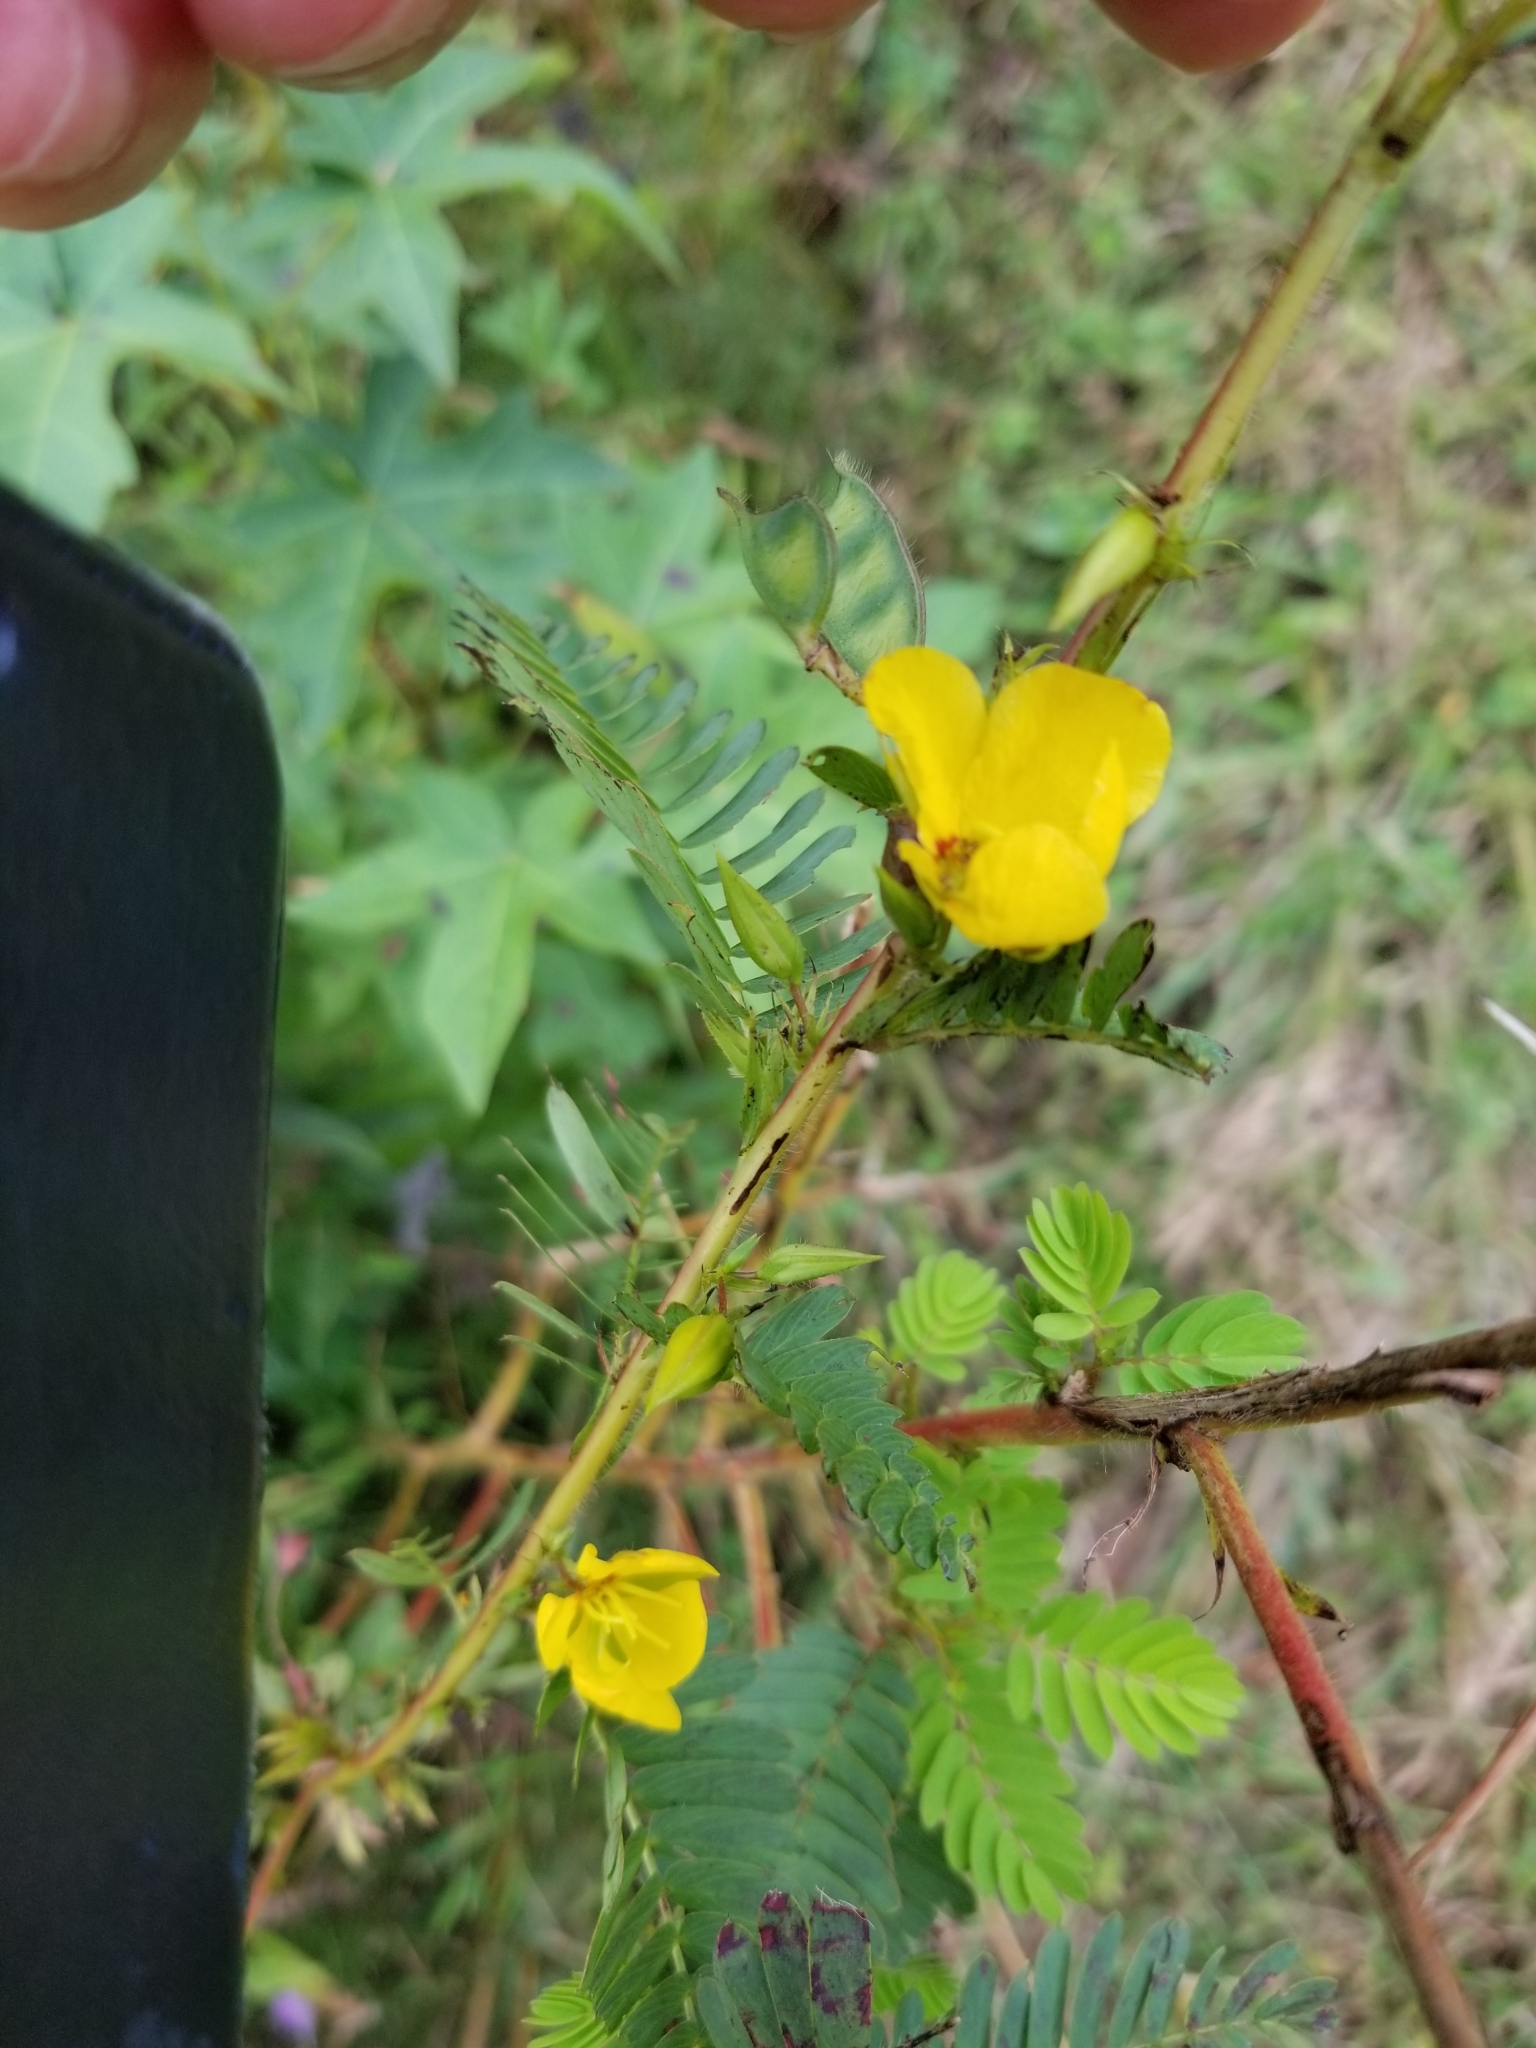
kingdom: Plantae
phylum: Tracheophyta
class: Magnoliopsida
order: Fabales
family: Fabaceae
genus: Chamaecrista
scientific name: Chamaecrista fasciculata
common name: Golden cassia
